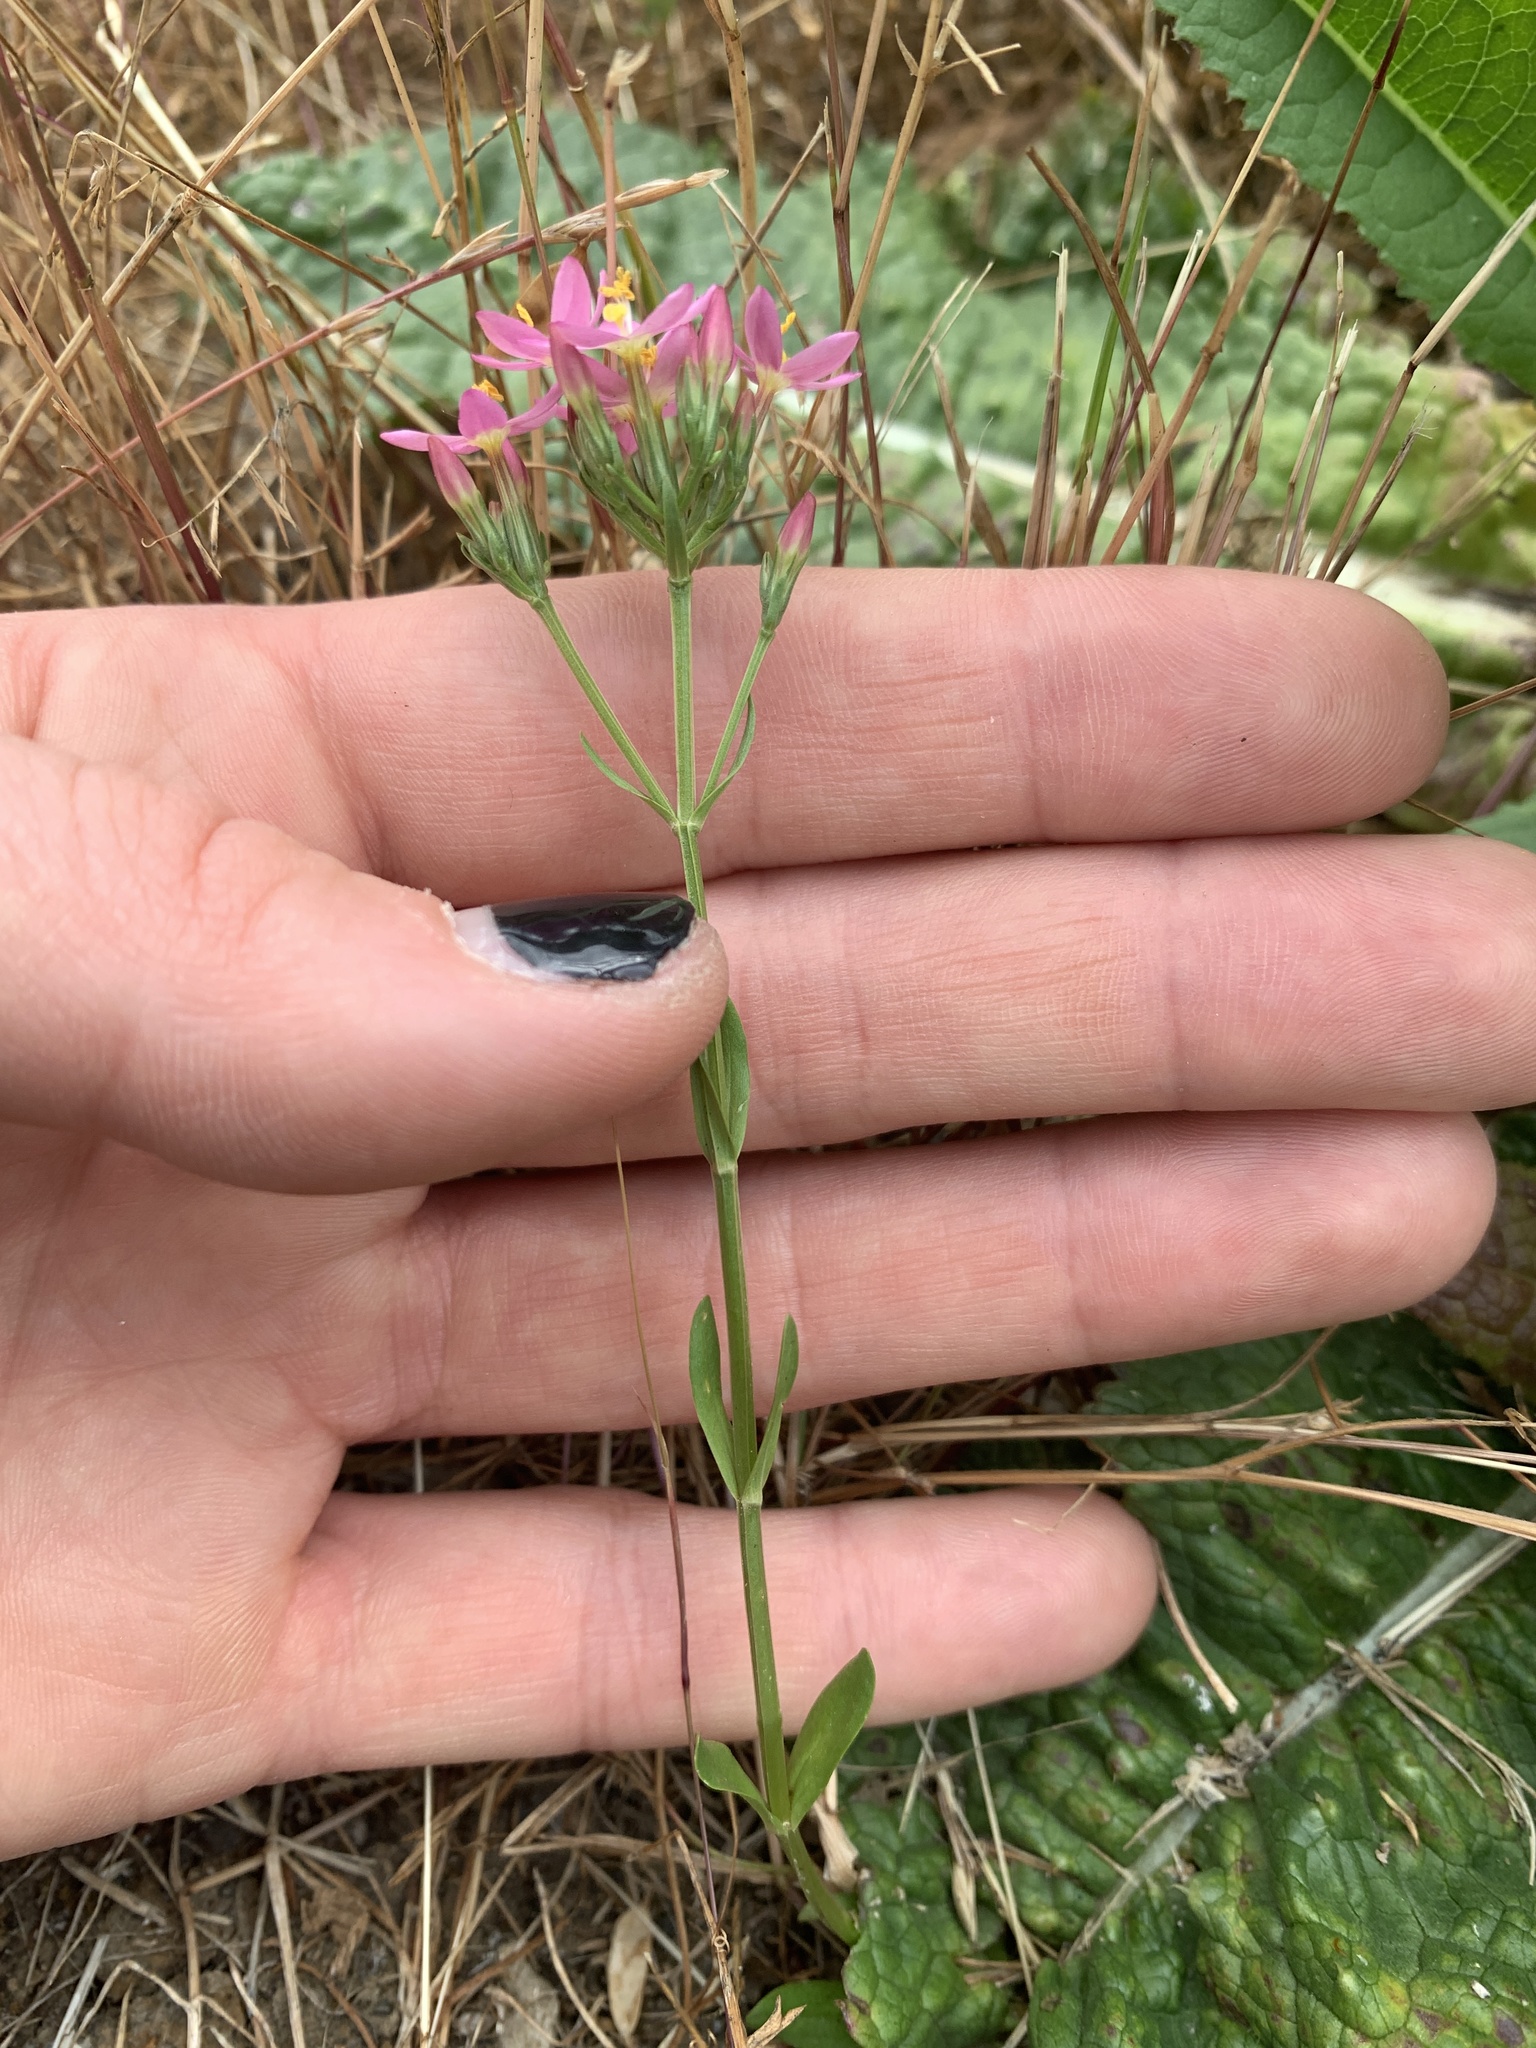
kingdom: Plantae
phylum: Tracheophyta
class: Magnoliopsida
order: Gentianales
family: Gentianaceae
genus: Centaurium
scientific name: Centaurium erythraea
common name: Common centaury
